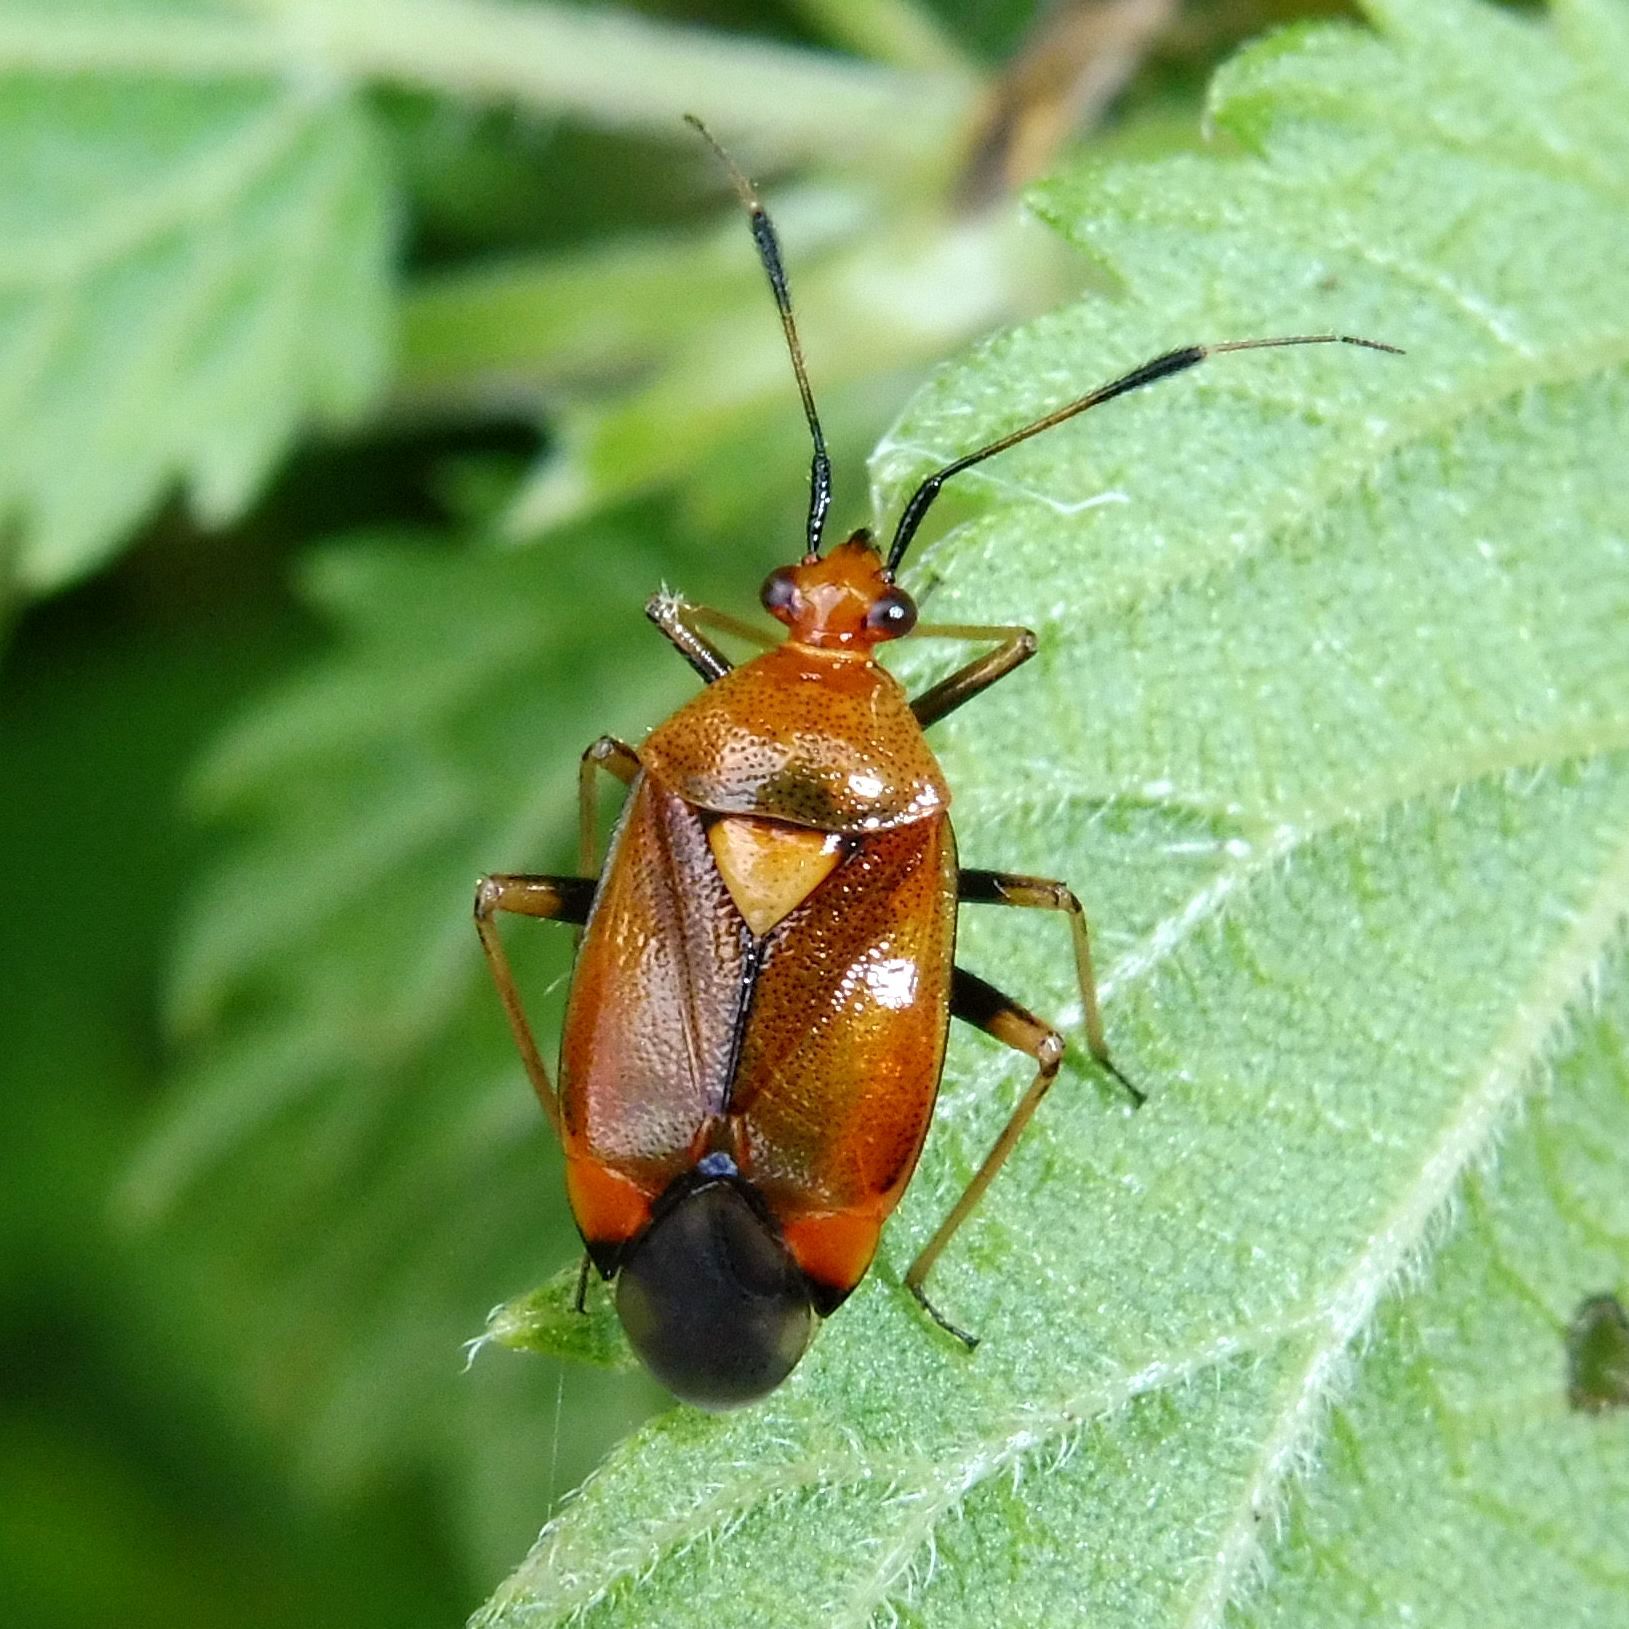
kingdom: Animalia
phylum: Arthropoda
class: Insecta
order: Hemiptera
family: Miridae
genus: Deraeocoris
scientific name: Deraeocoris ruber
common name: Plant bug
